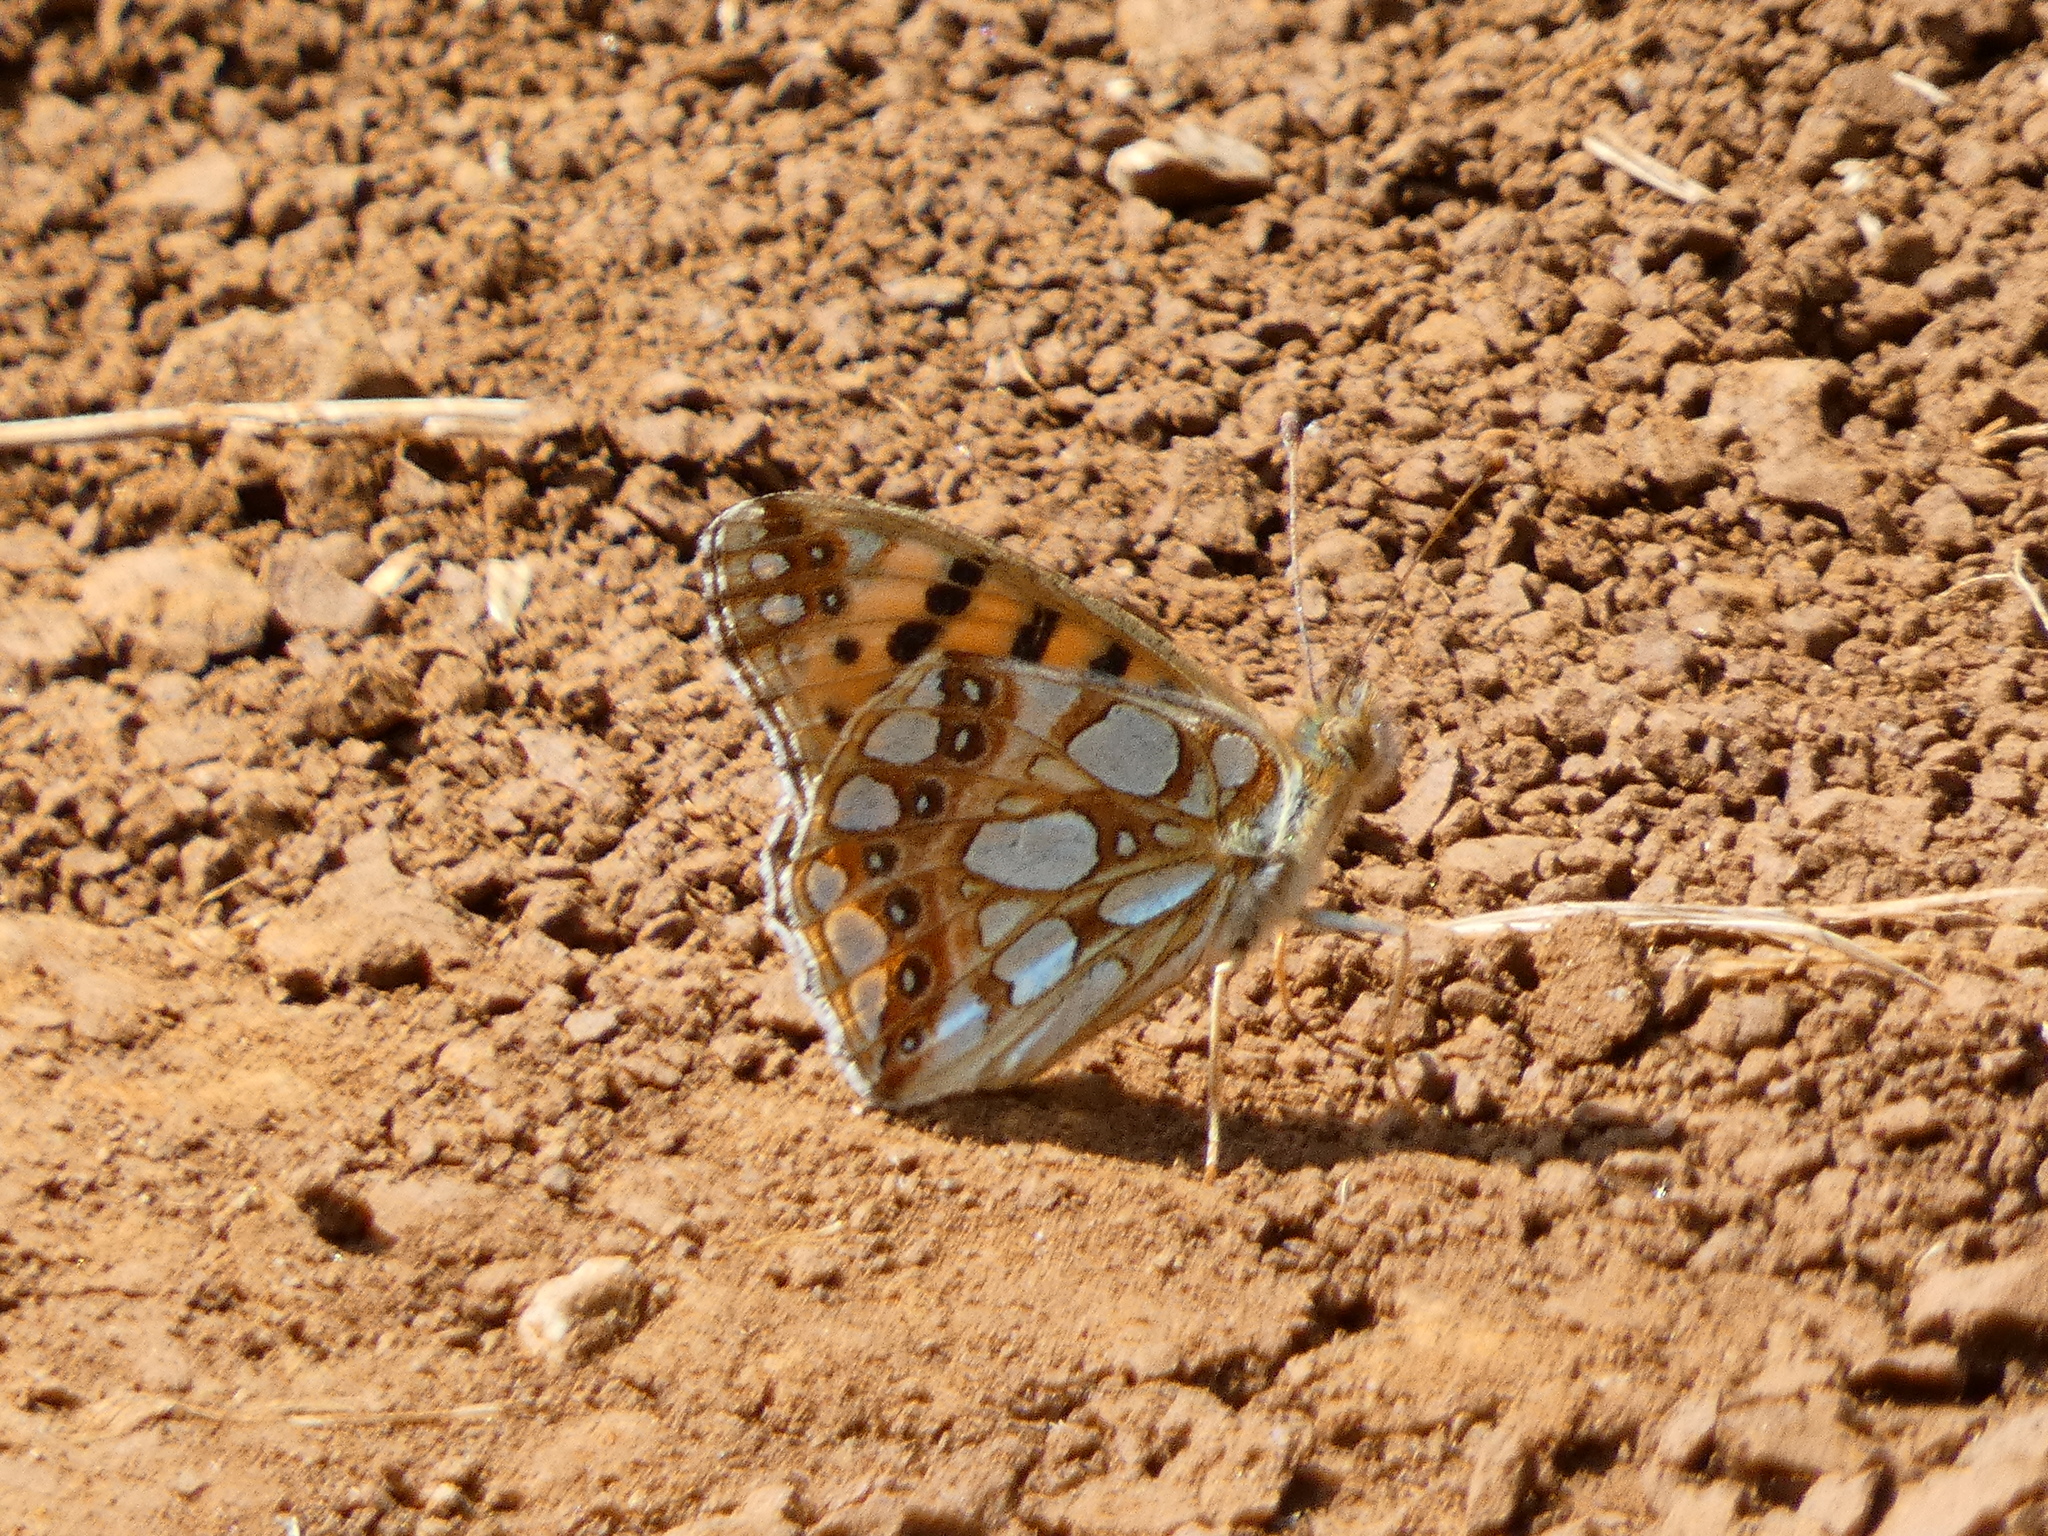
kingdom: Animalia
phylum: Arthropoda
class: Insecta
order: Lepidoptera
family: Nymphalidae
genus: Issoria
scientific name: Issoria lathonia
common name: Queen of spain fritillary
